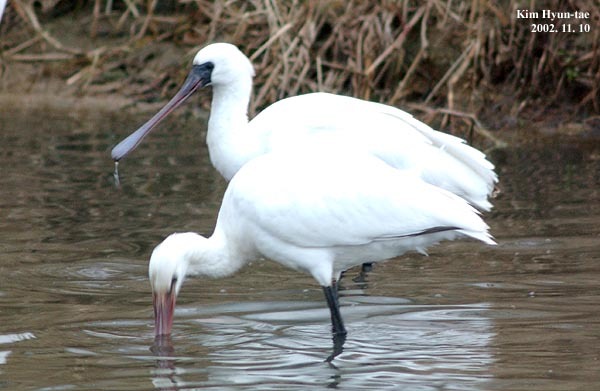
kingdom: Animalia
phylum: Chordata
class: Aves
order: Pelecaniformes
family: Threskiornithidae
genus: Platalea
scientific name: Platalea minor
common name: Black-faced spoonbill
